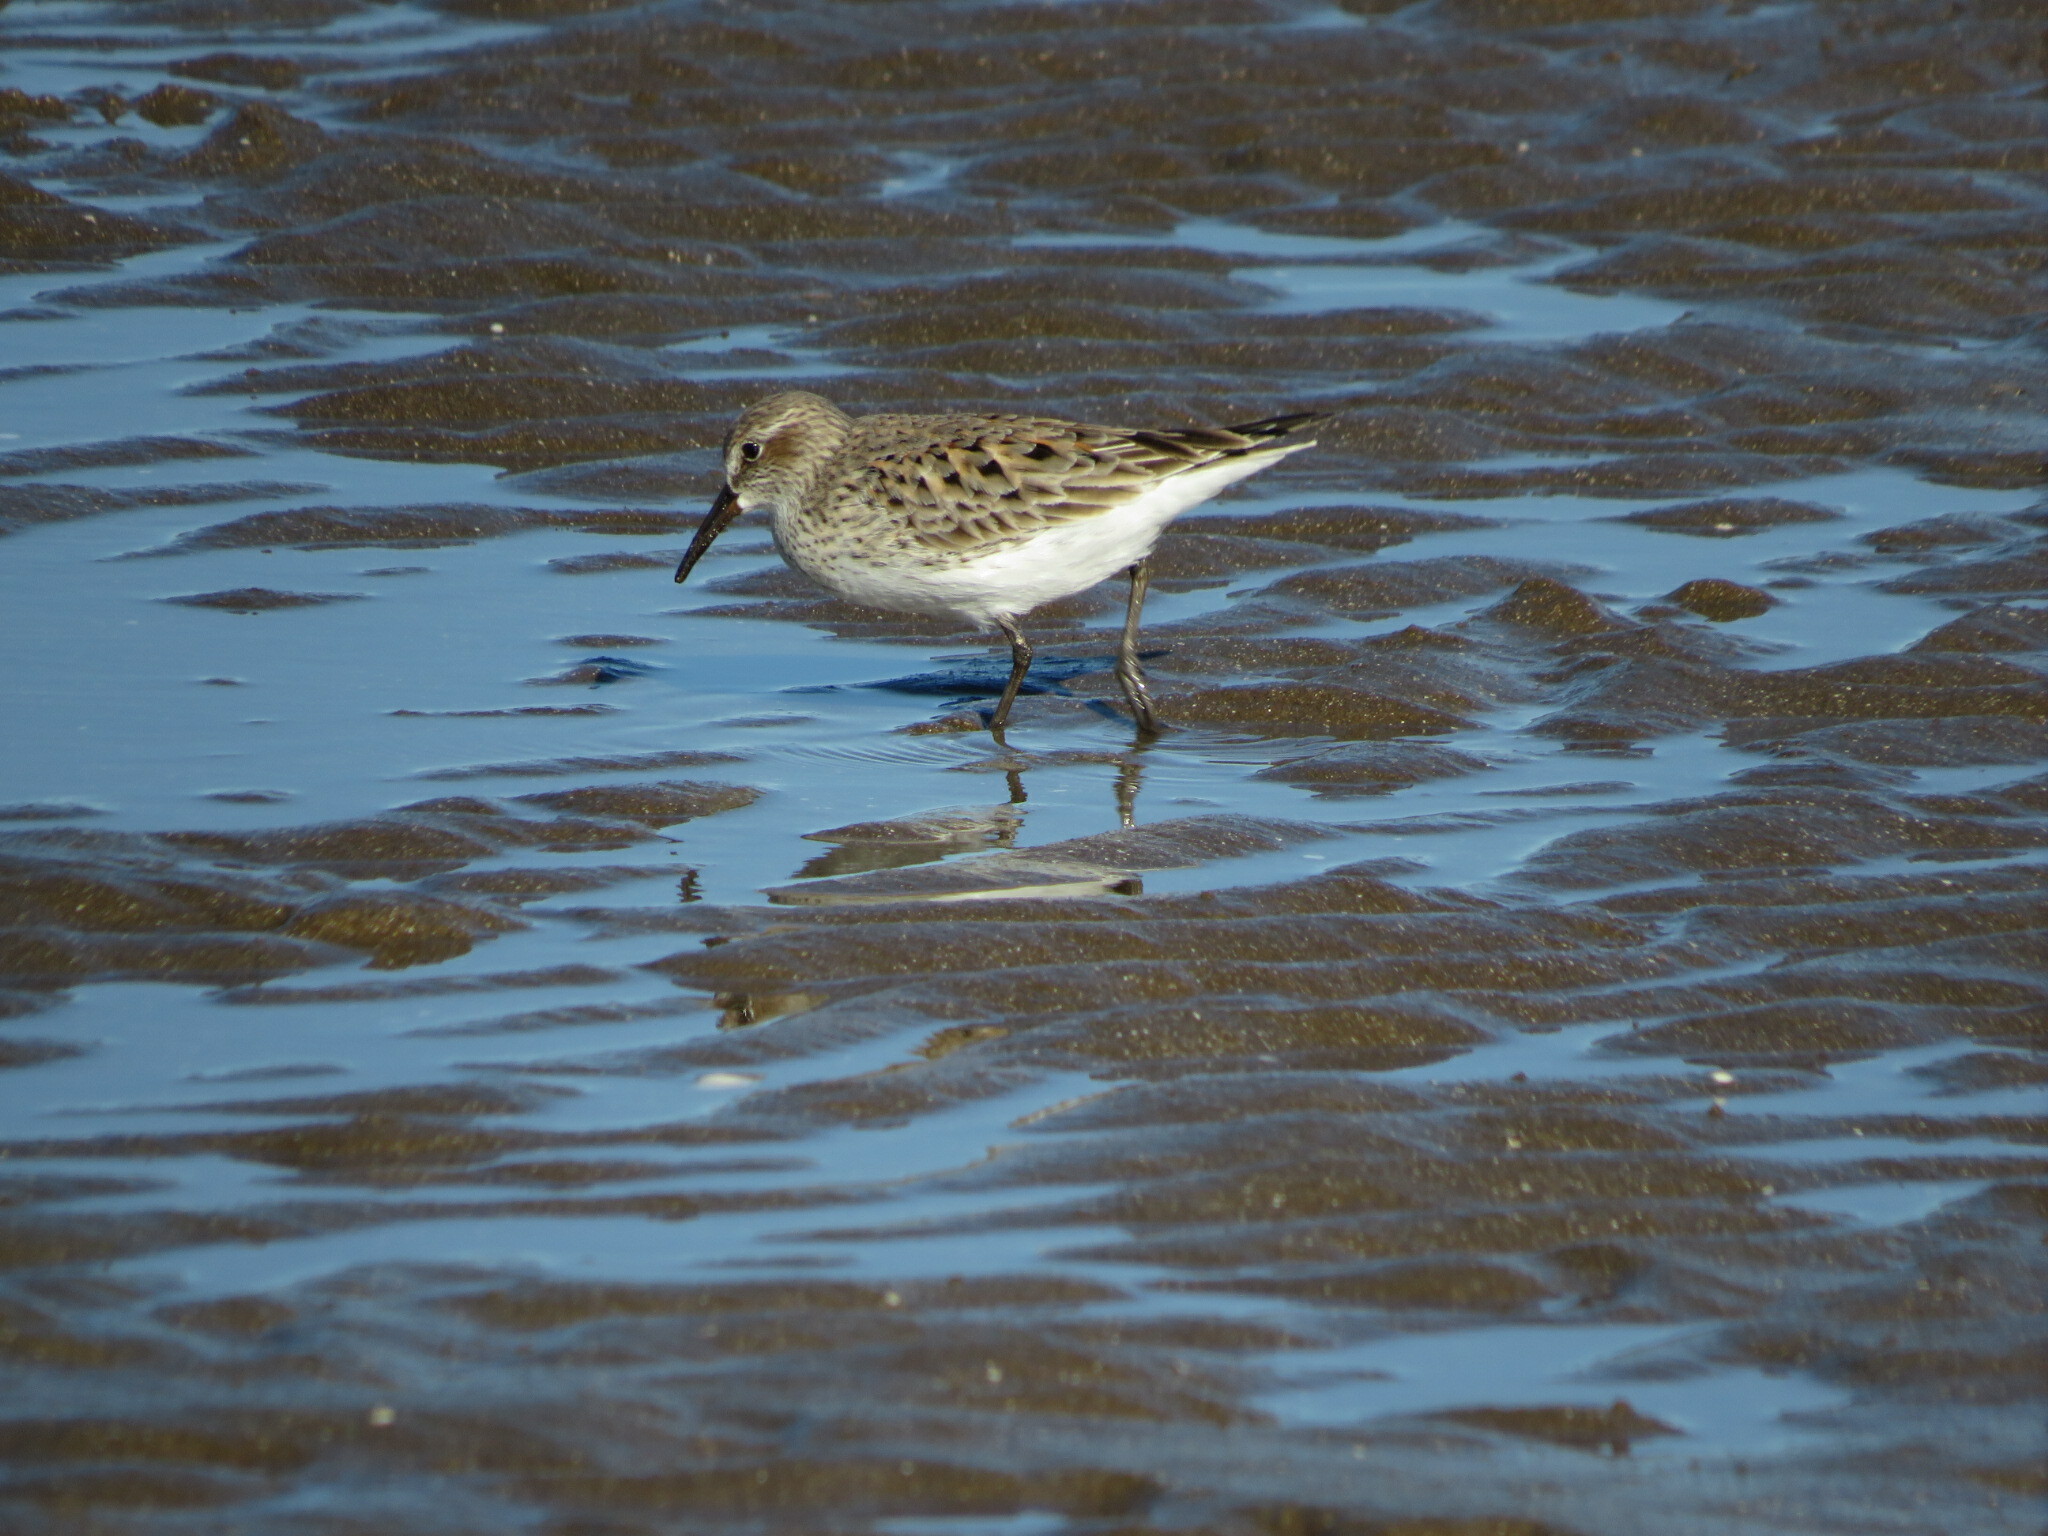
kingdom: Animalia
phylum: Chordata
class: Aves
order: Charadriiformes
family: Scolopacidae
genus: Calidris
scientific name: Calidris fuscicollis
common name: White-rumped sandpiper
